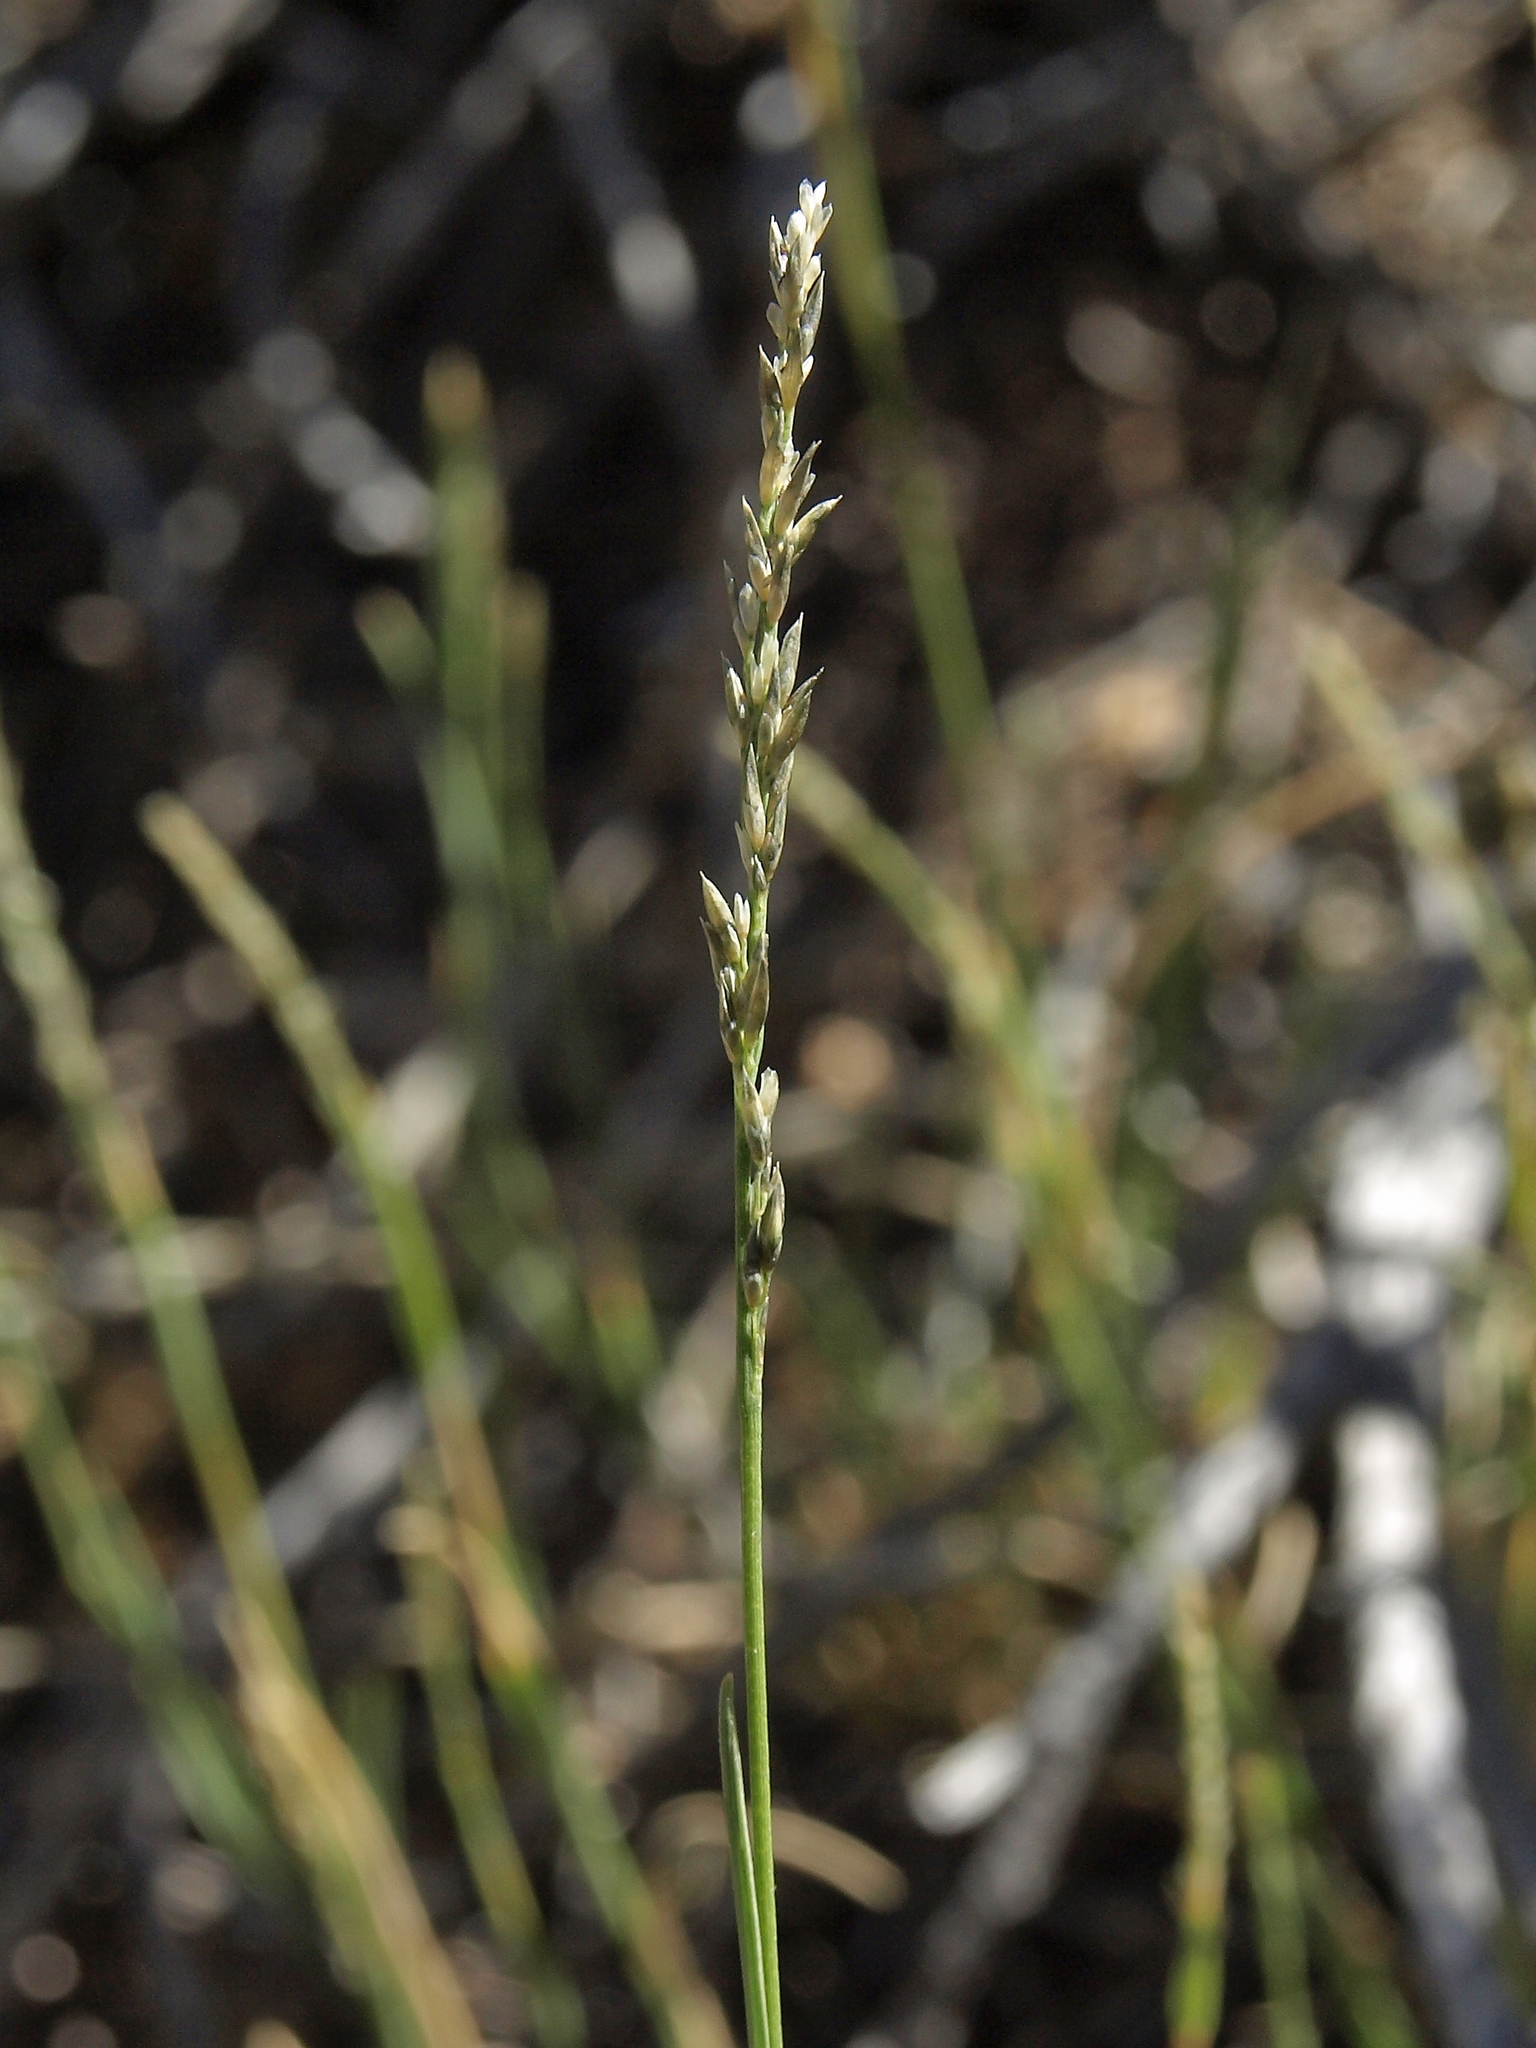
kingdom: Plantae
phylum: Tracheophyta
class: Liliopsida
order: Poales
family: Poaceae
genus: Muhlenbergia
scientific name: Muhlenbergia richardsonis
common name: Mat muhly
